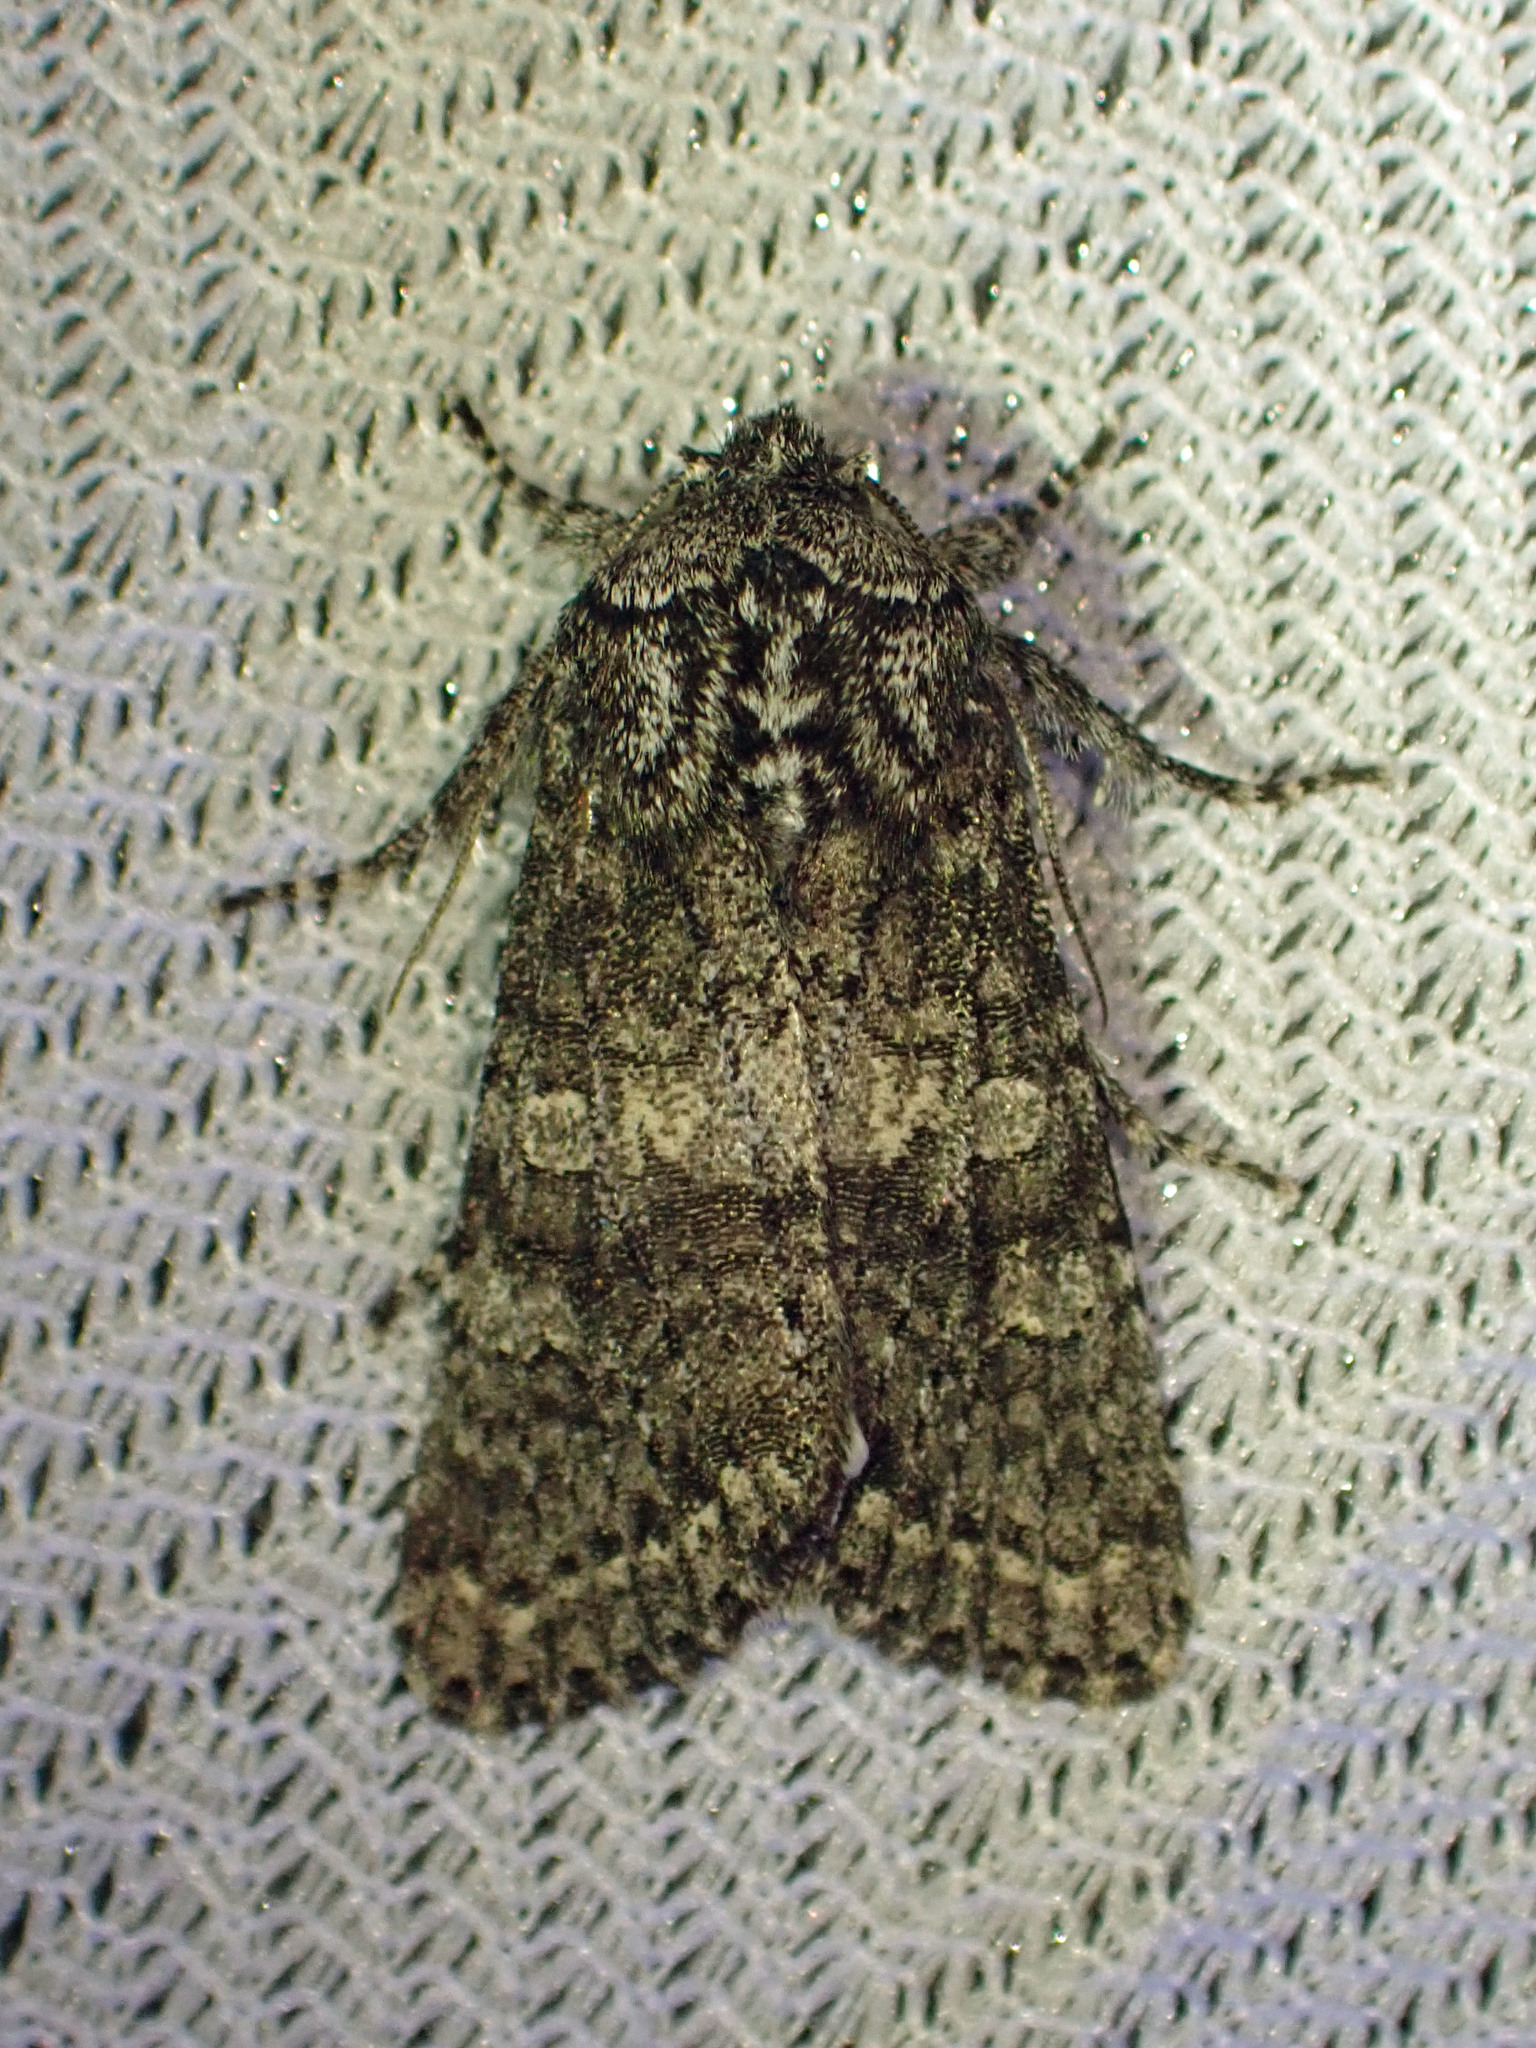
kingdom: Animalia
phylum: Arthropoda
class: Insecta
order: Lepidoptera
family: Noctuidae
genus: Egira
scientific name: Egira dolosa
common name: Lined black aspen cat.
